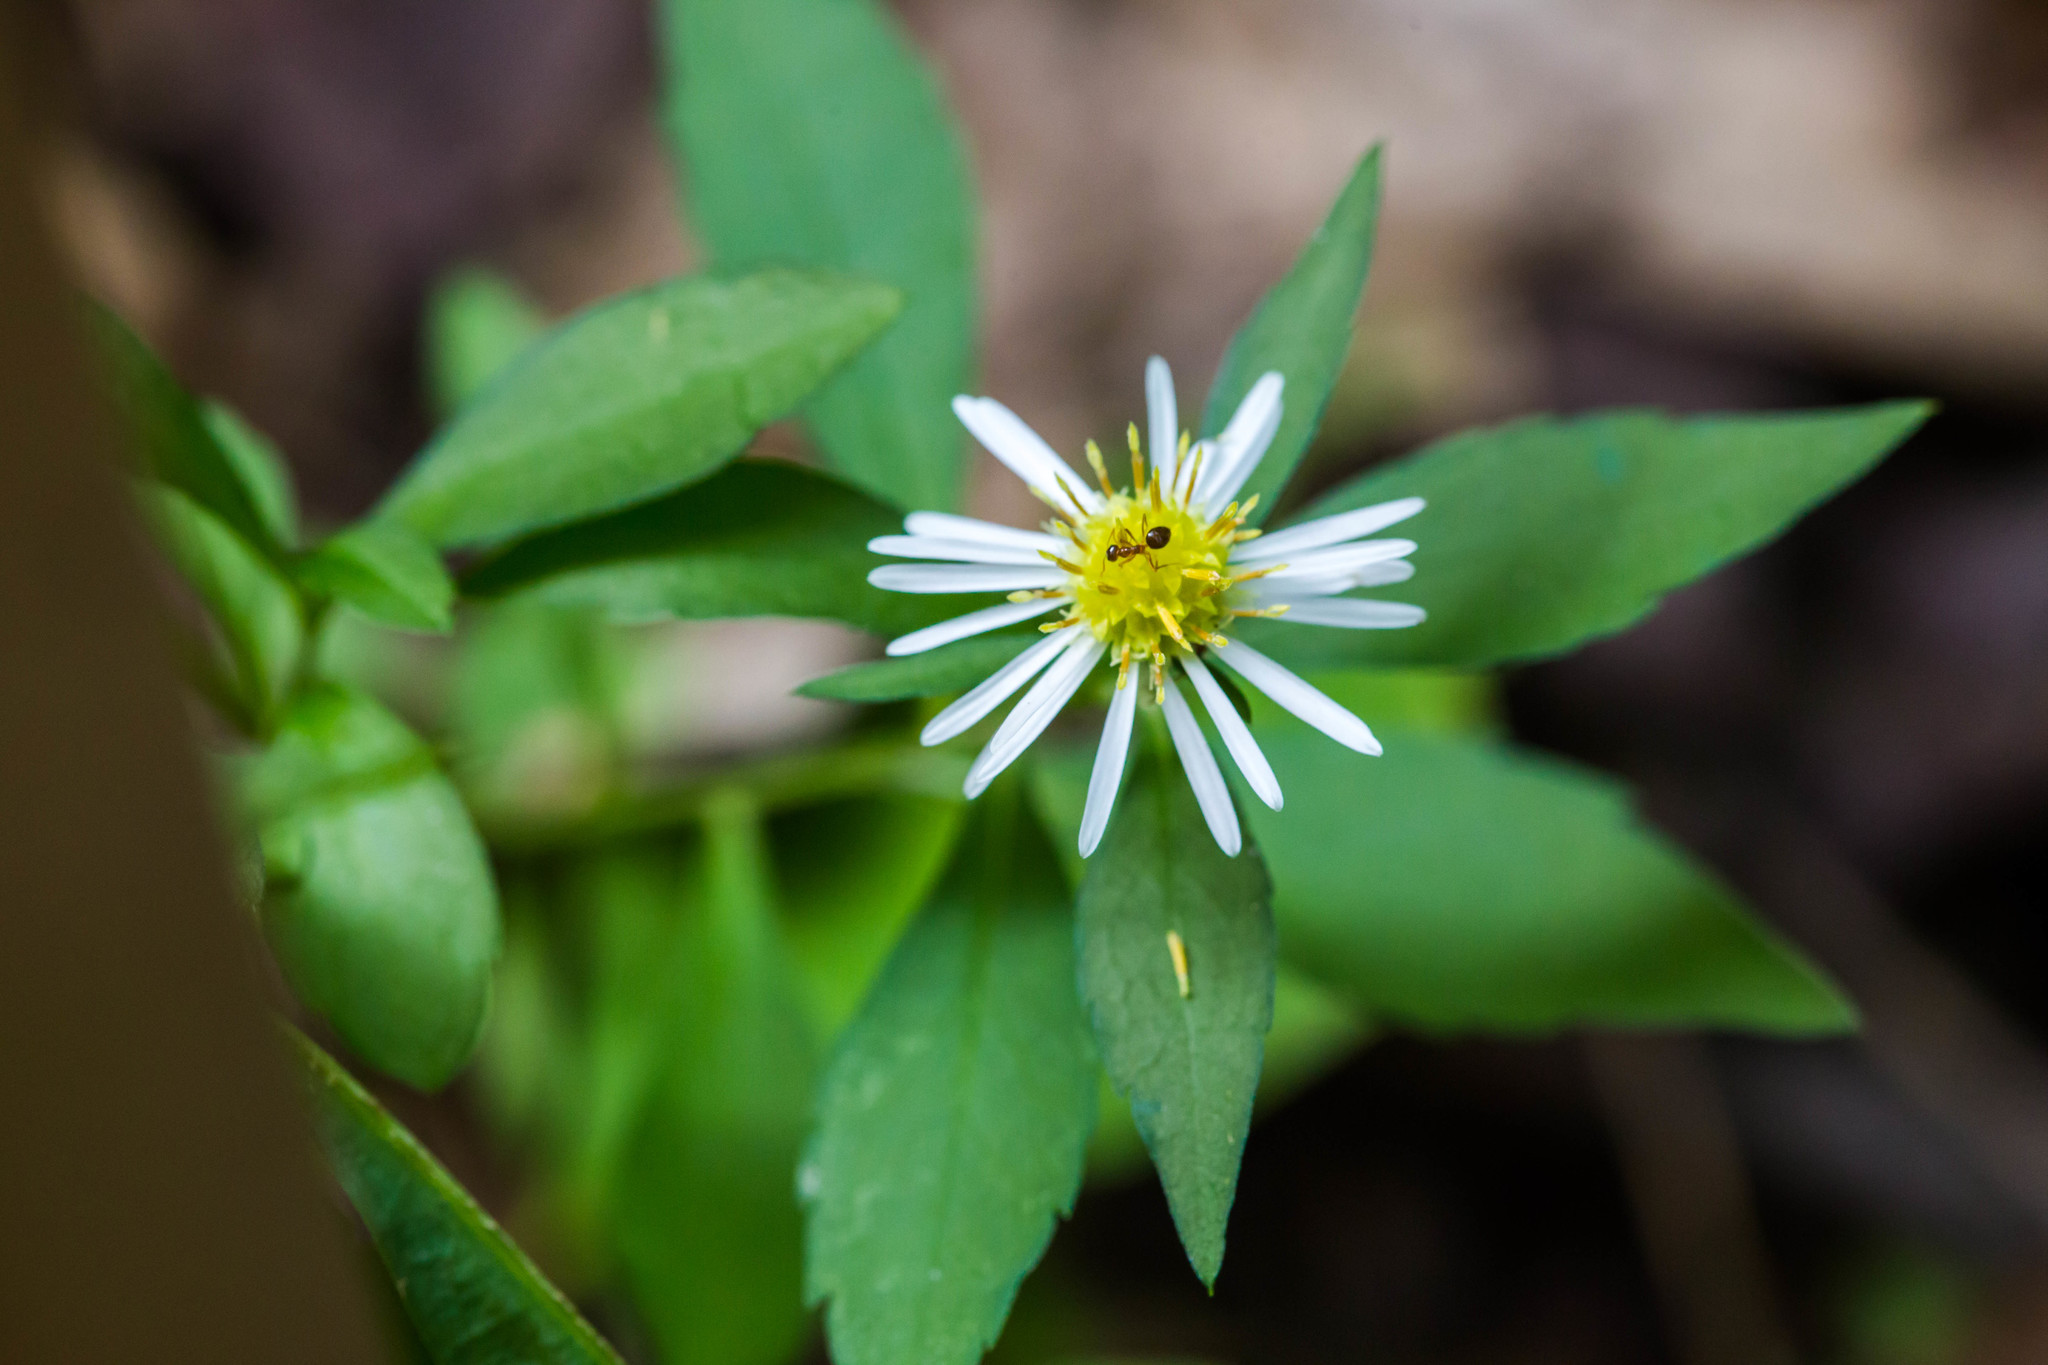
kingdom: Animalia
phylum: Arthropoda
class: Insecta
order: Hymenoptera
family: Formicidae
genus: Prenolepis
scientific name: Prenolepis imparis
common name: Small honey ant
